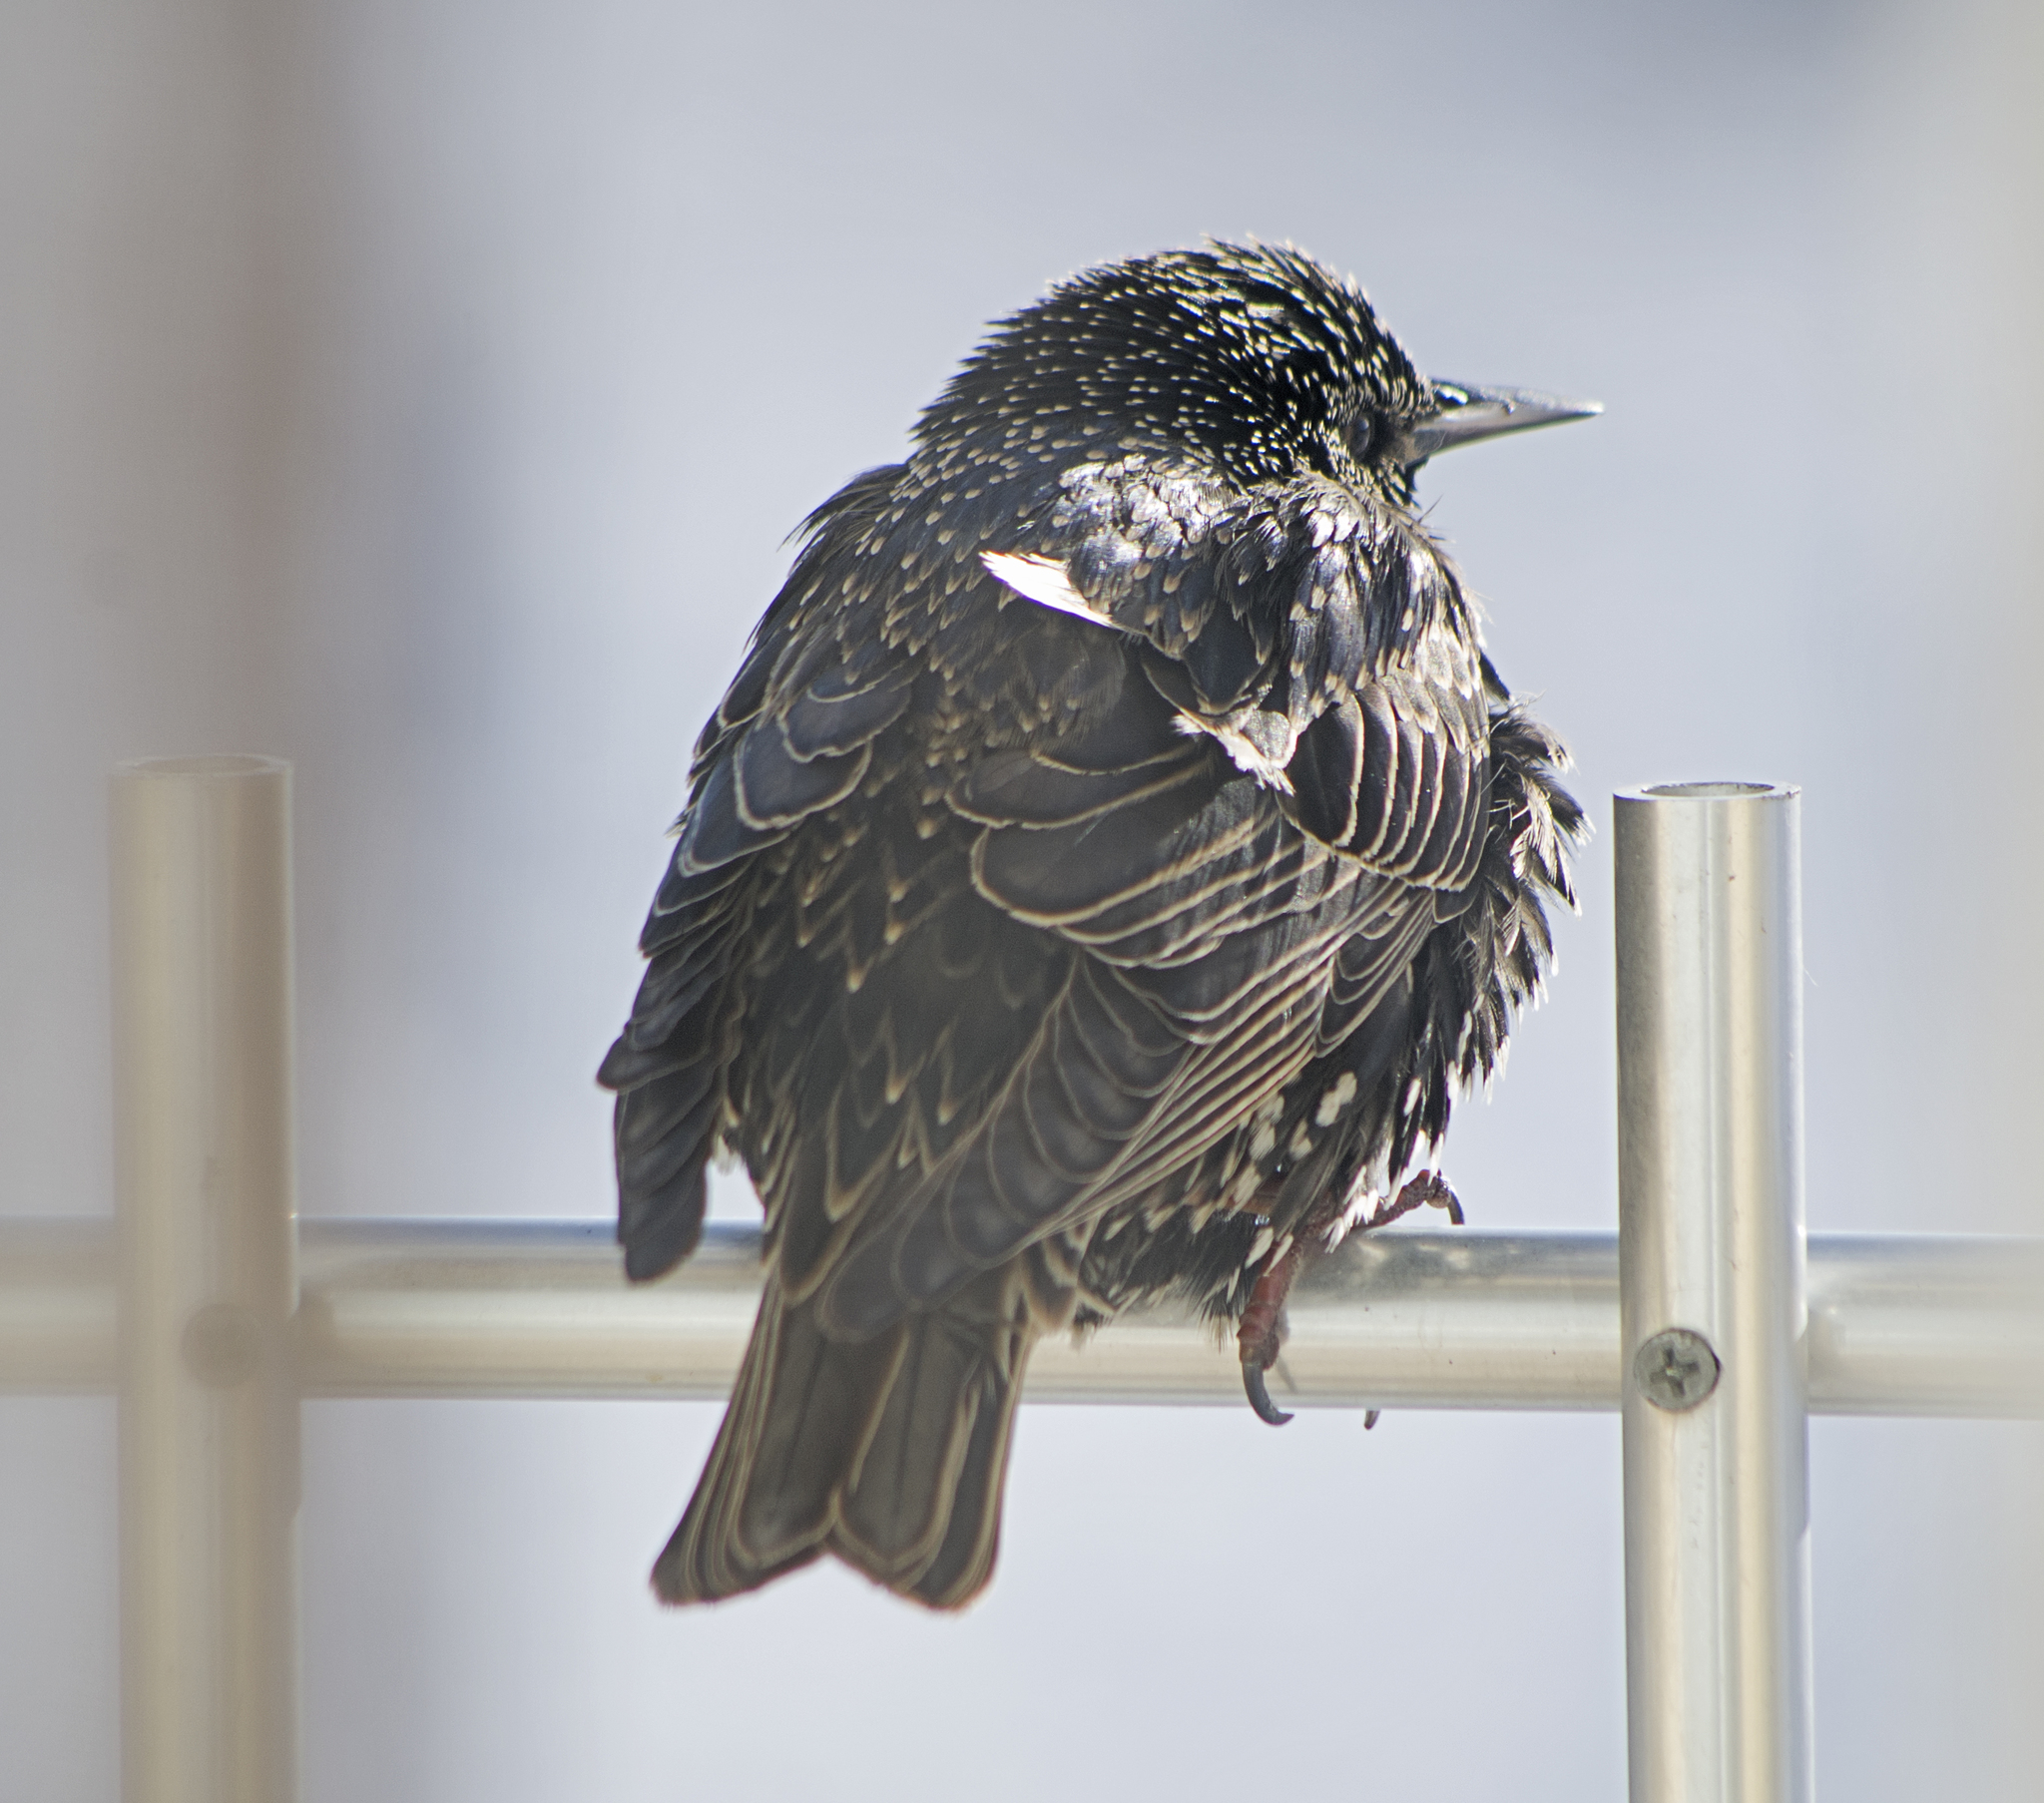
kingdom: Animalia
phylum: Chordata
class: Aves
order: Passeriformes
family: Sturnidae
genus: Sturnus
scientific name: Sturnus vulgaris
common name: Common starling
